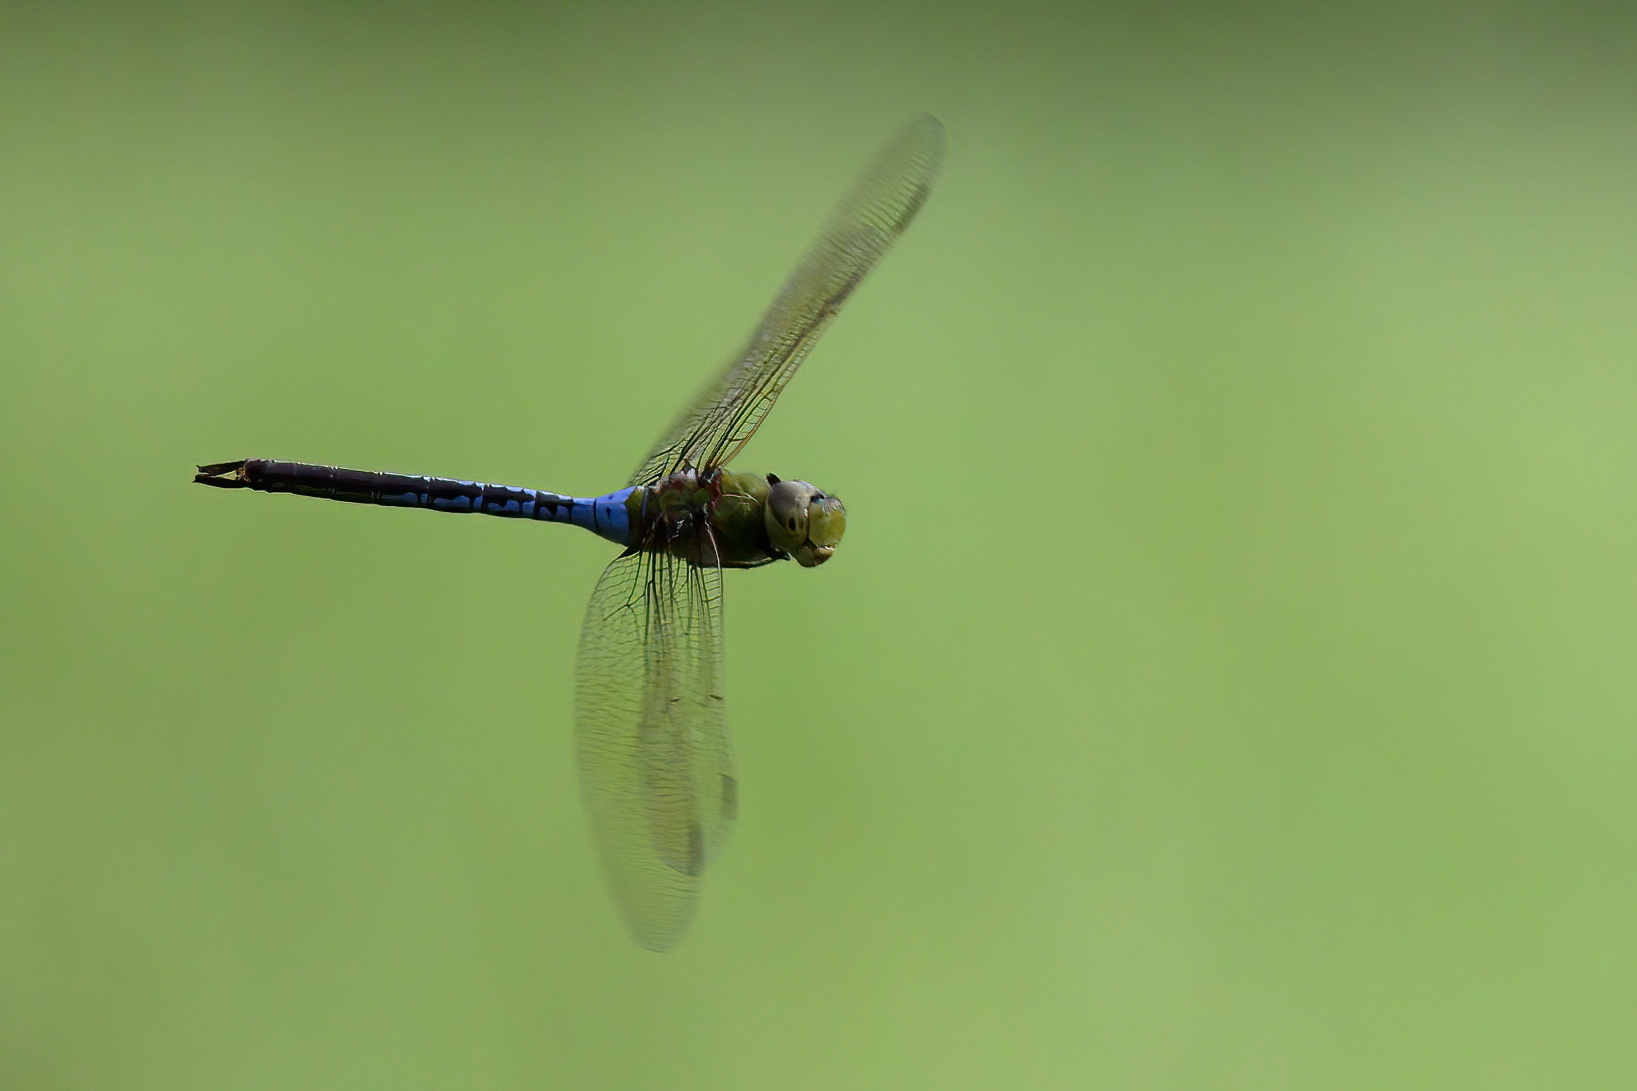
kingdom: Animalia
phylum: Arthropoda
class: Insecta
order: Odonata
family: Aeshnidae
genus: Anax
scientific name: Anax junius
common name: Common green darner
